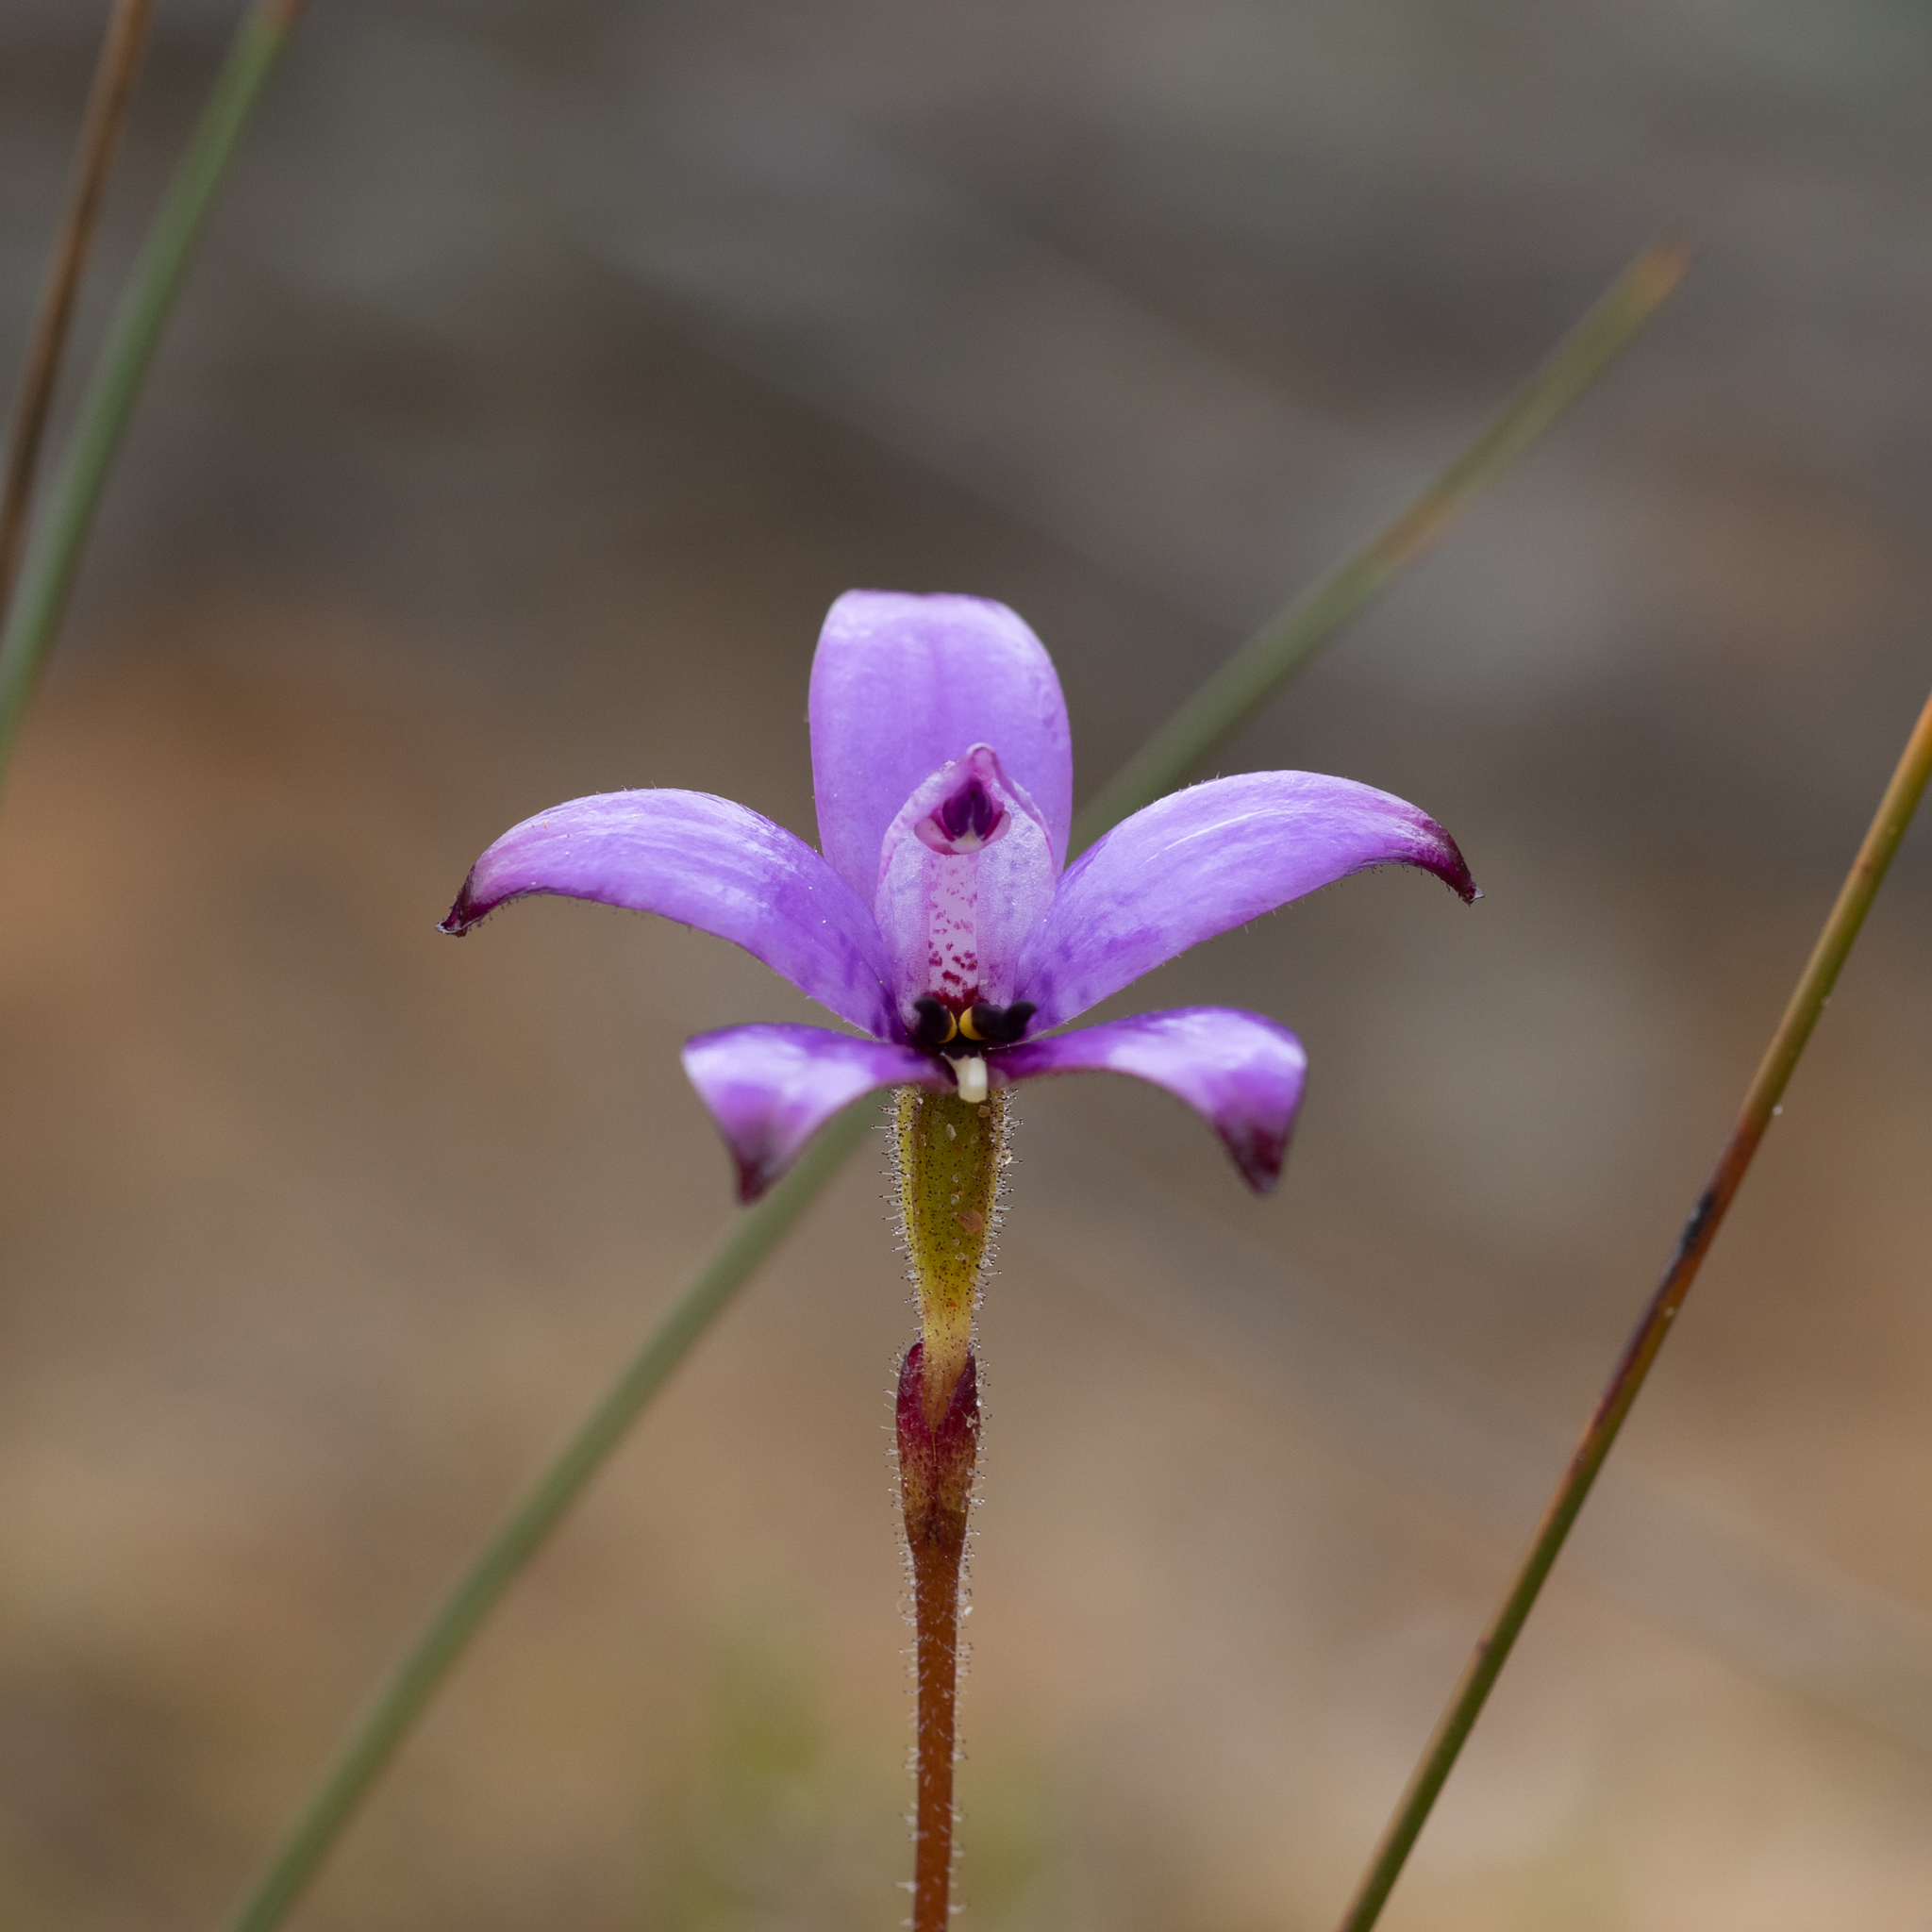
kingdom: Plantae
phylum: Tracheophyta
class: Liliopsida
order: Asparagales
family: Orchidaceae
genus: Caladenia
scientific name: Caladenia brunonis
